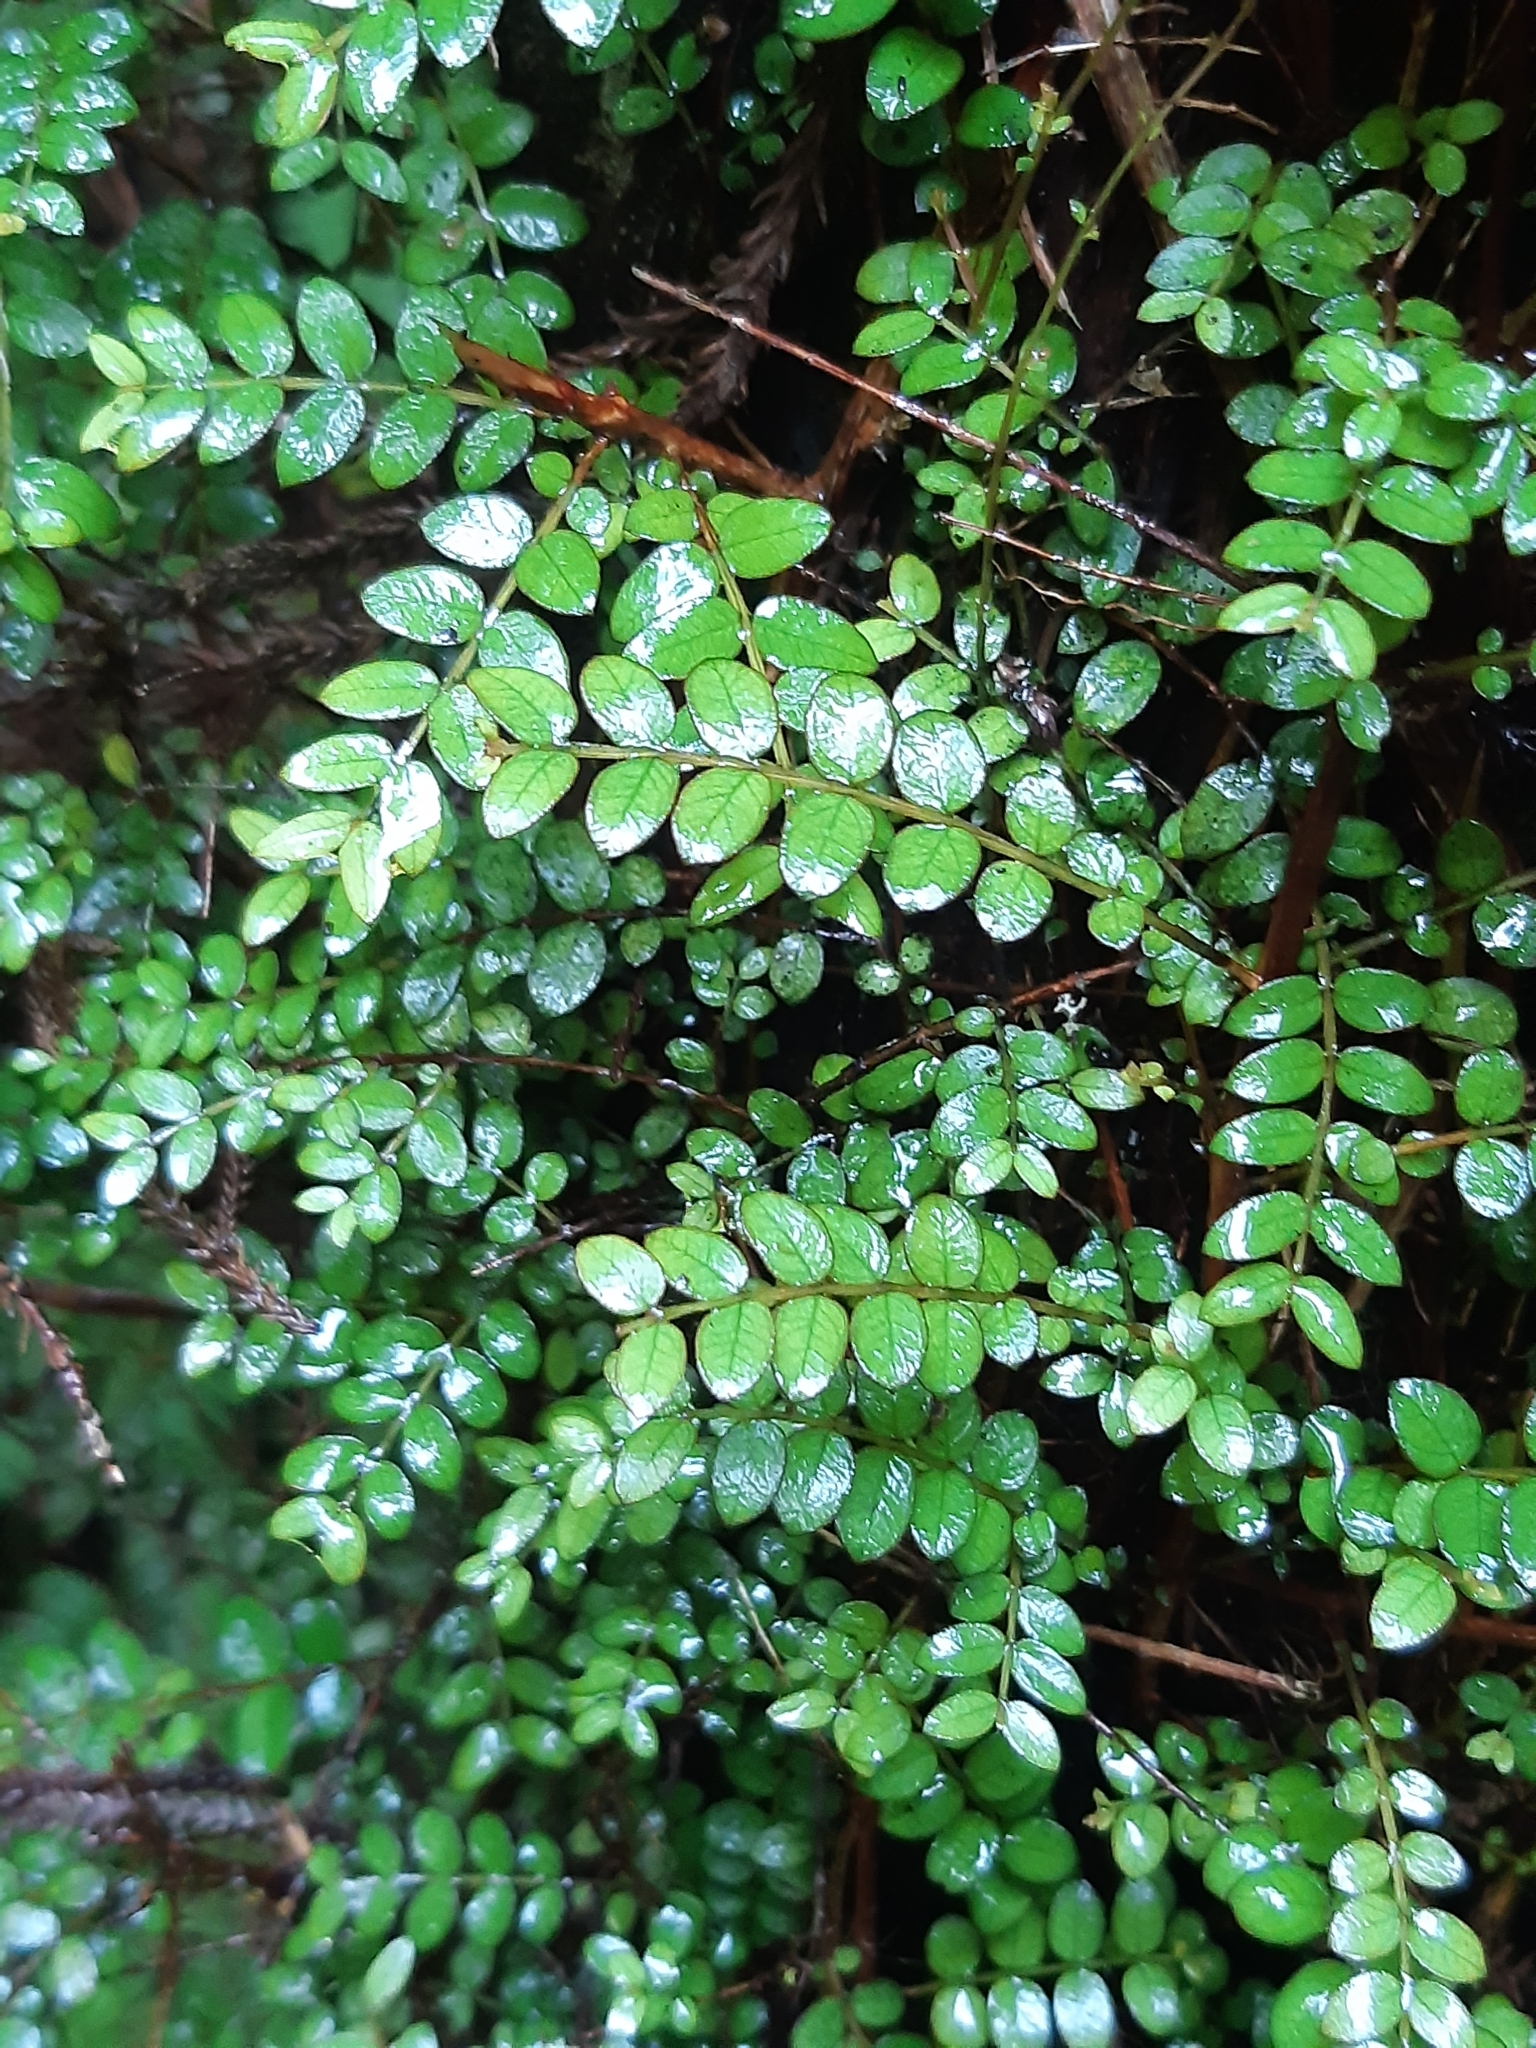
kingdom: Plantae
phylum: Tracheophyta
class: Magnoliopsida
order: Myrtales
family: Myrtaceae
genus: Metrosideros
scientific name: Metrosideros diffusa
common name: Small ratavine
